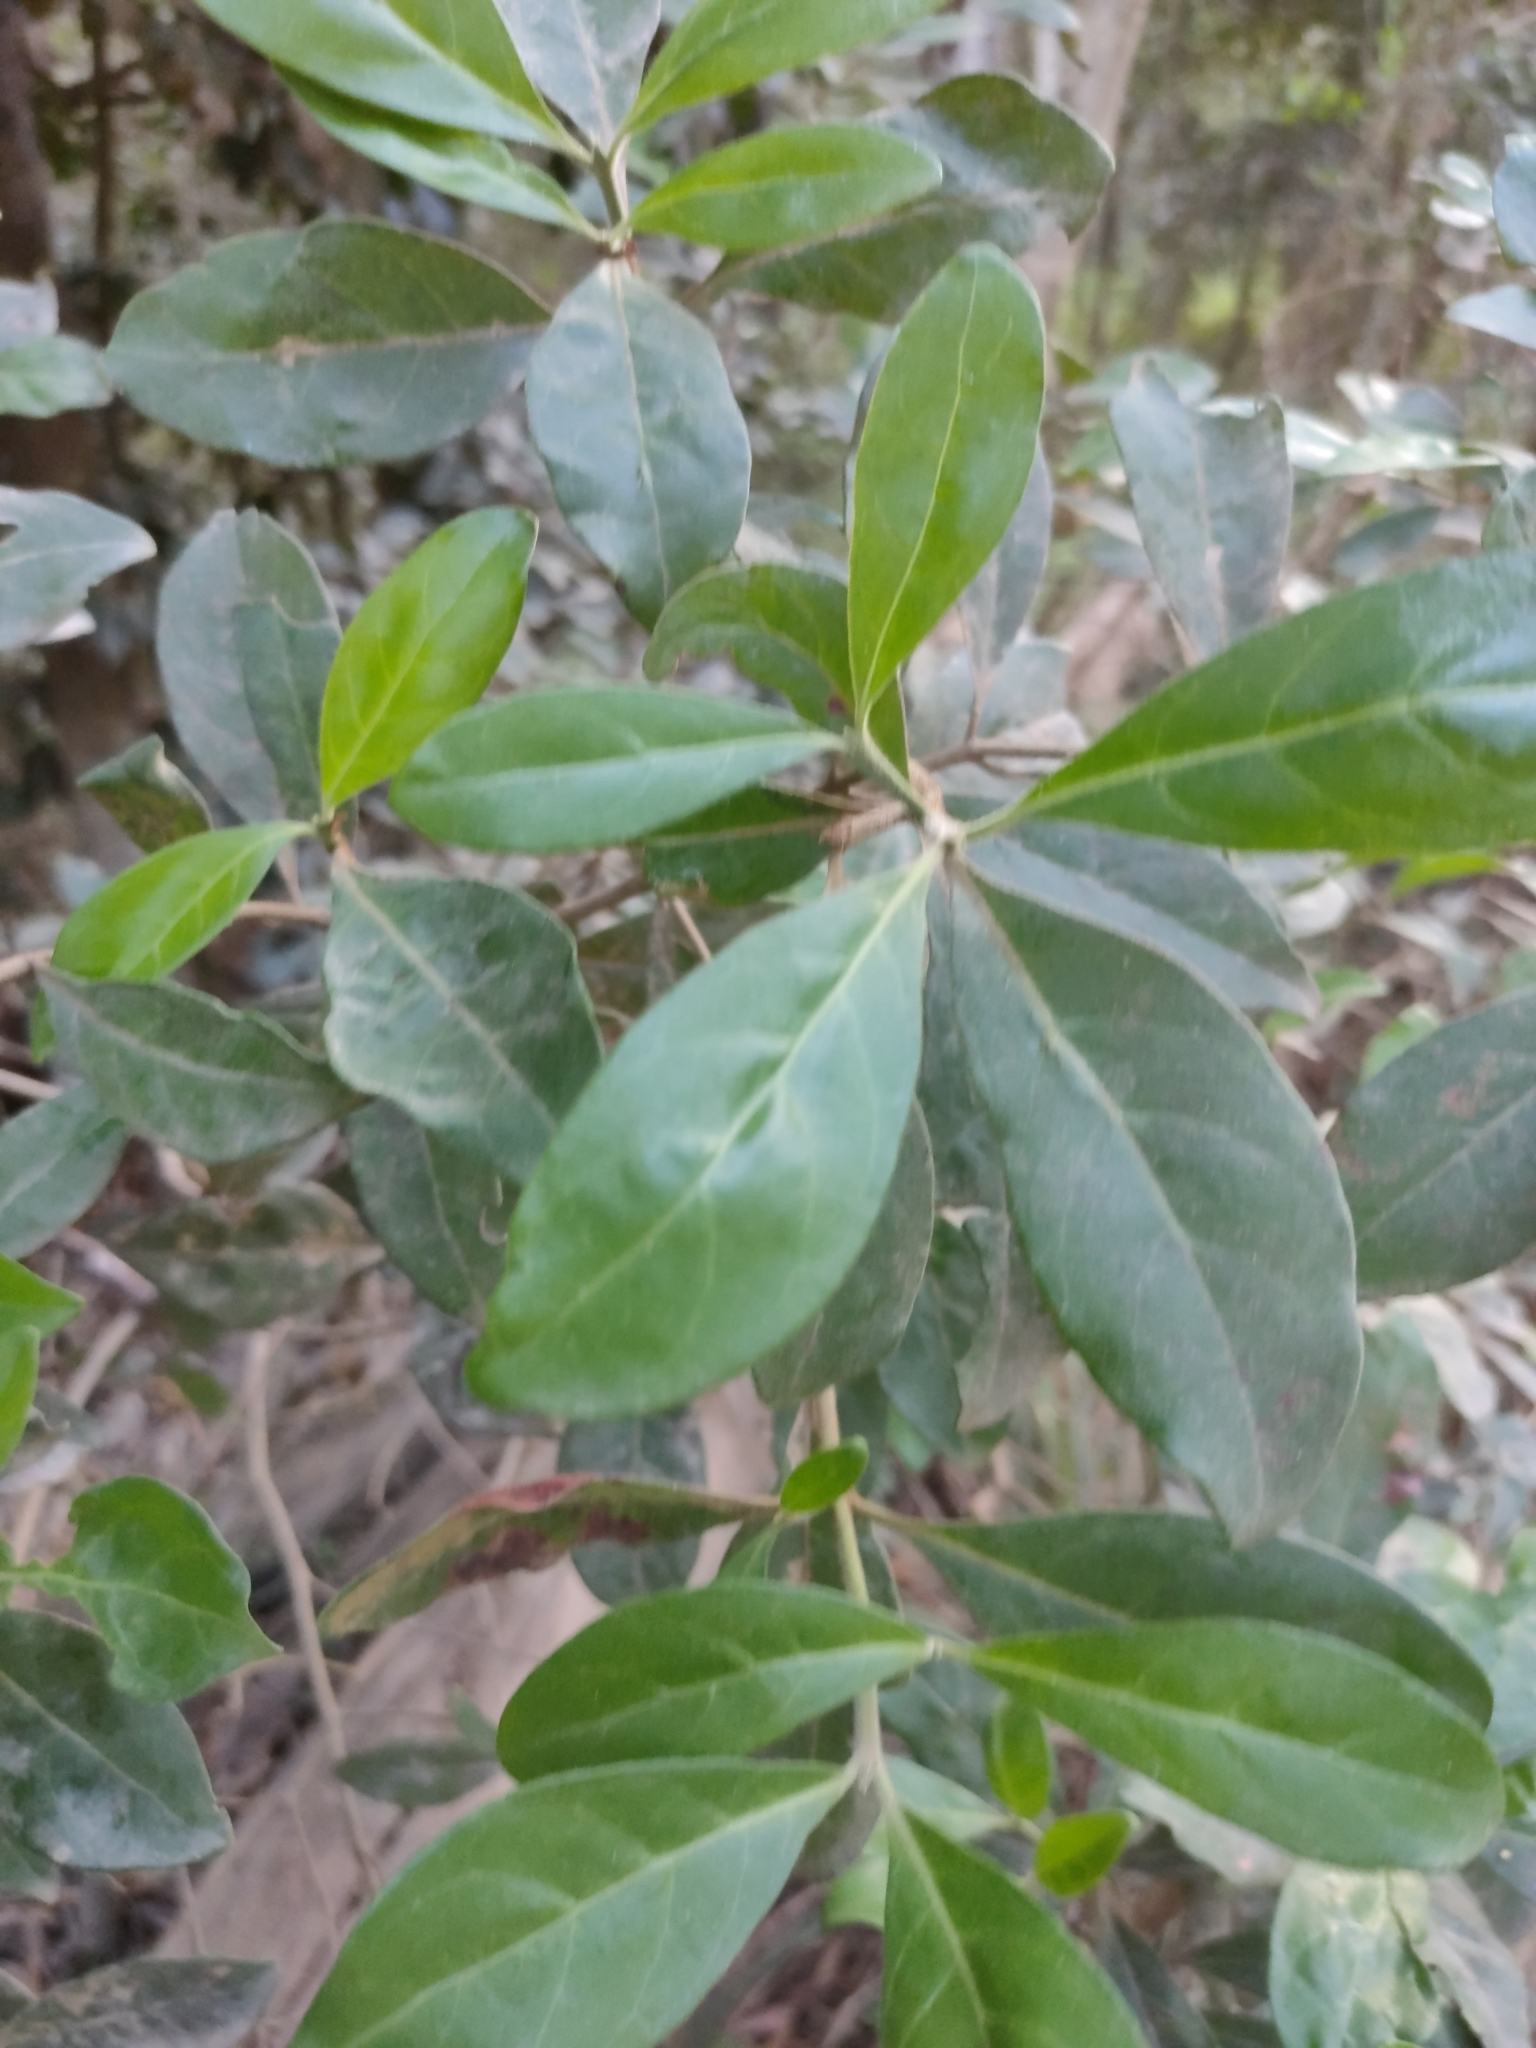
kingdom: Plantae
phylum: Tracheophyta
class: Magnoliopsida
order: Gentianales
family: Rubiaceae
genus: Psychotria
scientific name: Psychotria daphnoides
